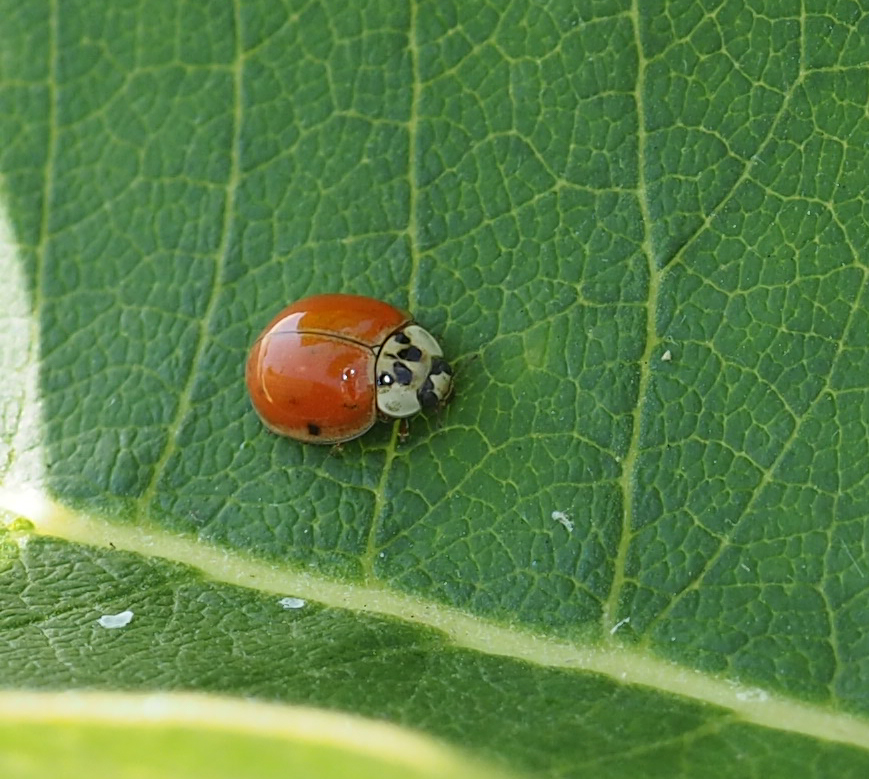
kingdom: Animalia
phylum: Arthropoda
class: Insecta
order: Coleoptera
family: Coccinellidae
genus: Harmonia
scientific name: Harmonia axyridis
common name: Harlequin ladybird
